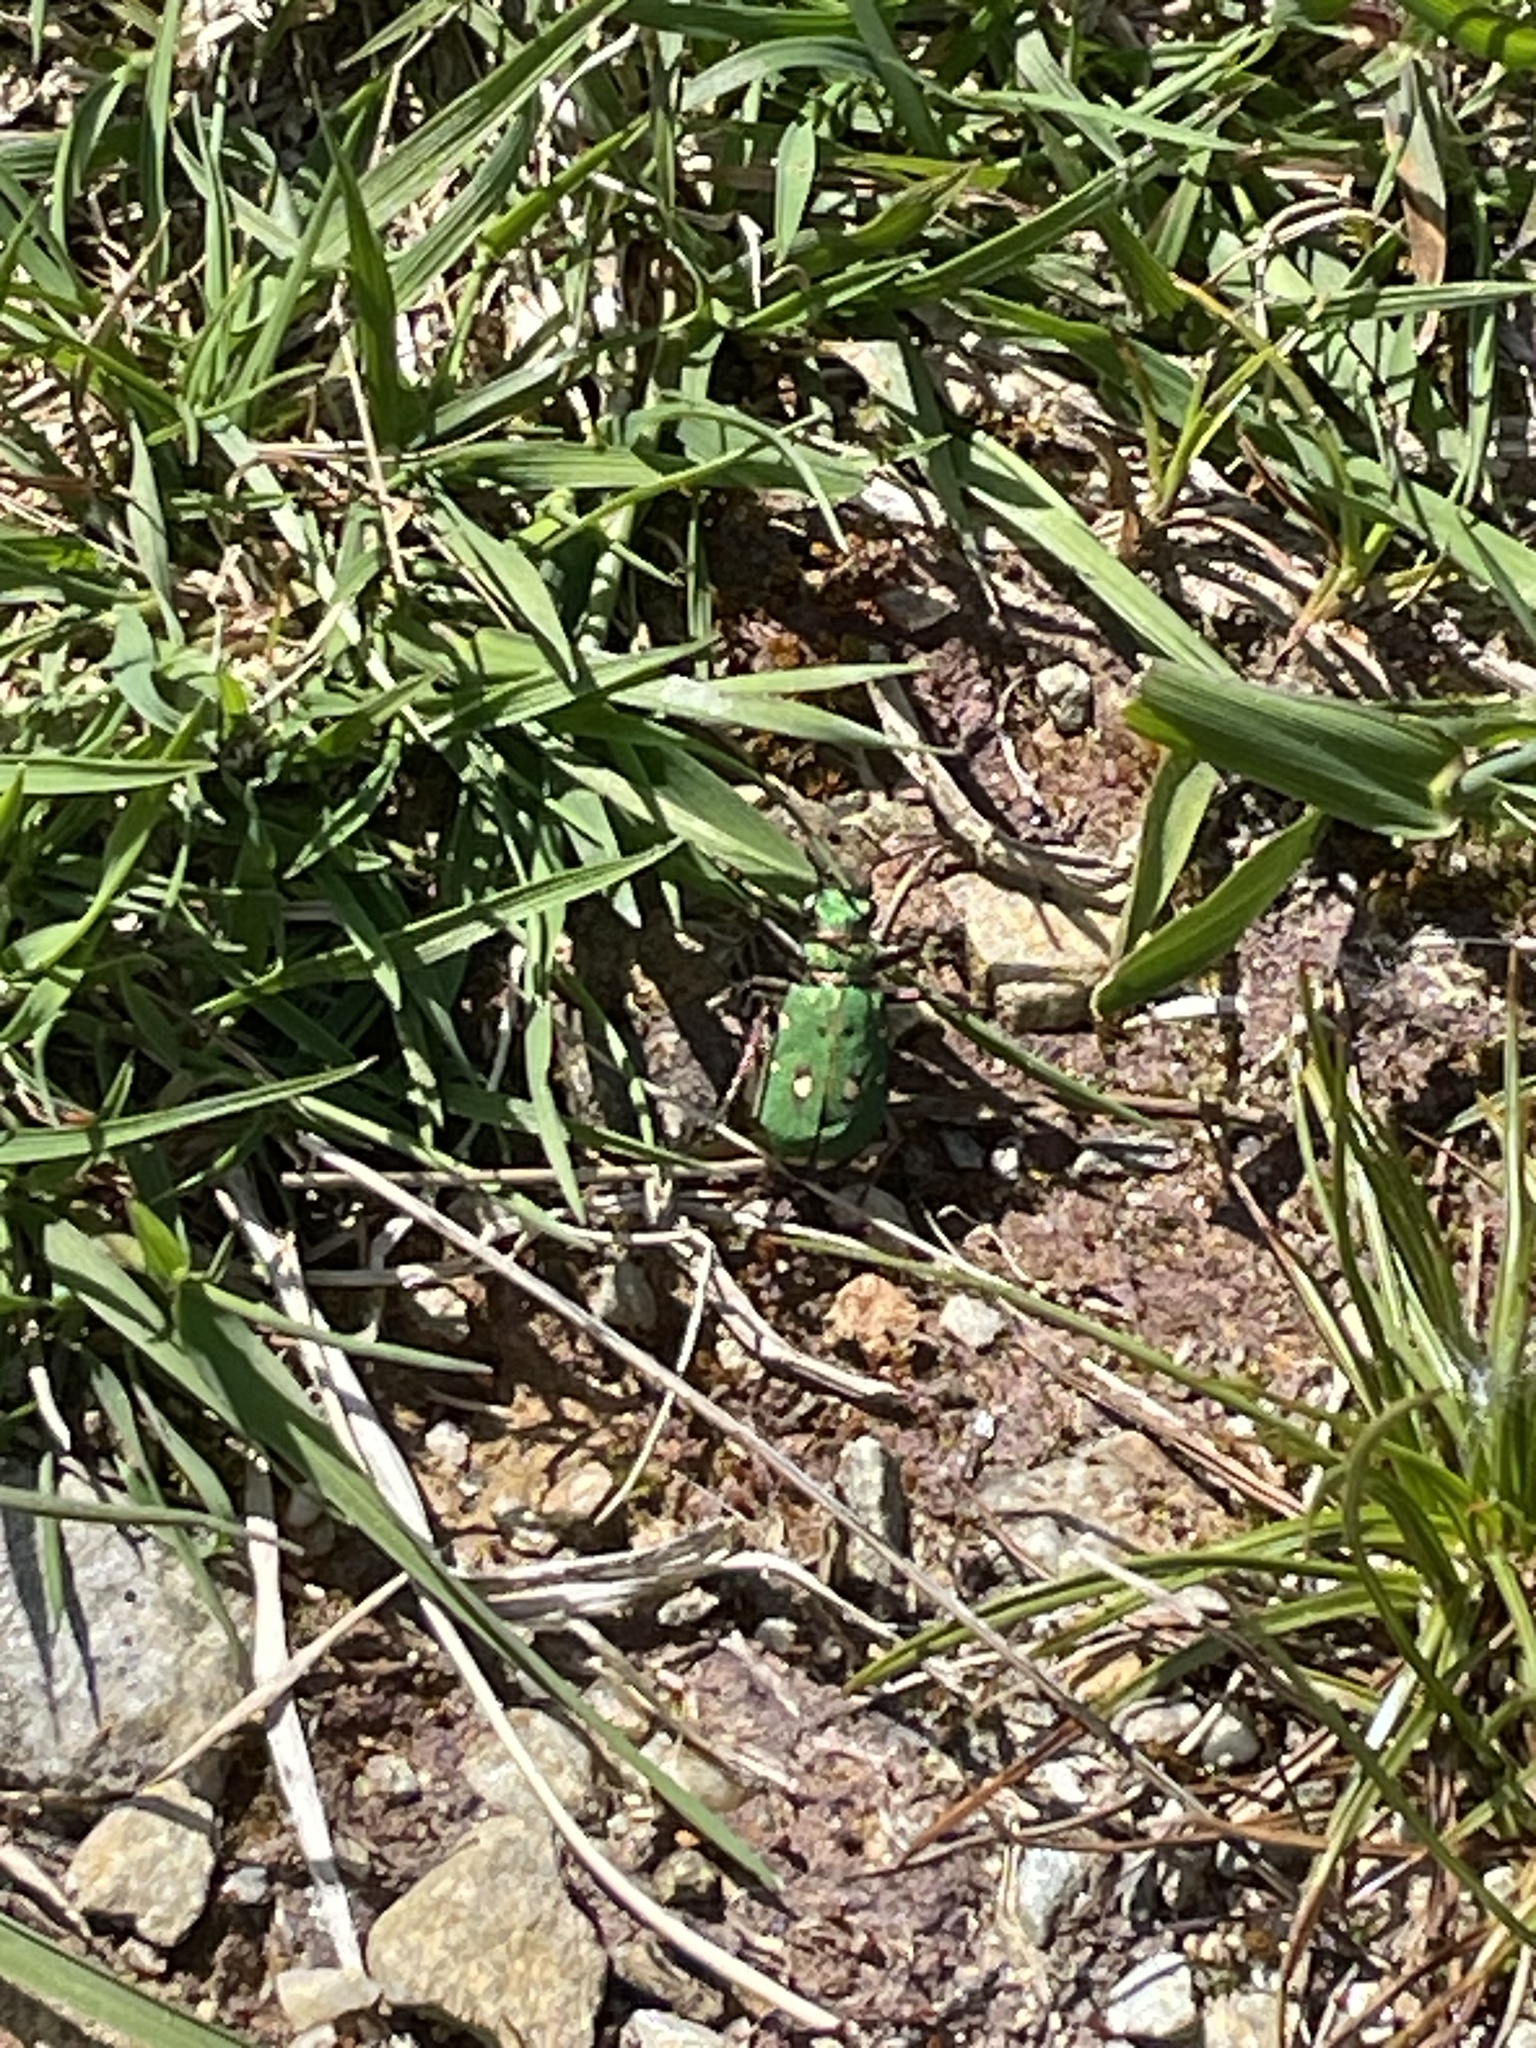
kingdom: Animalia
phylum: Arthropoda
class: Insecta
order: Coleoptera
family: Carabidae
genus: Cicindela
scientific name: Cicindela campestris
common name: Common tiger beetle
